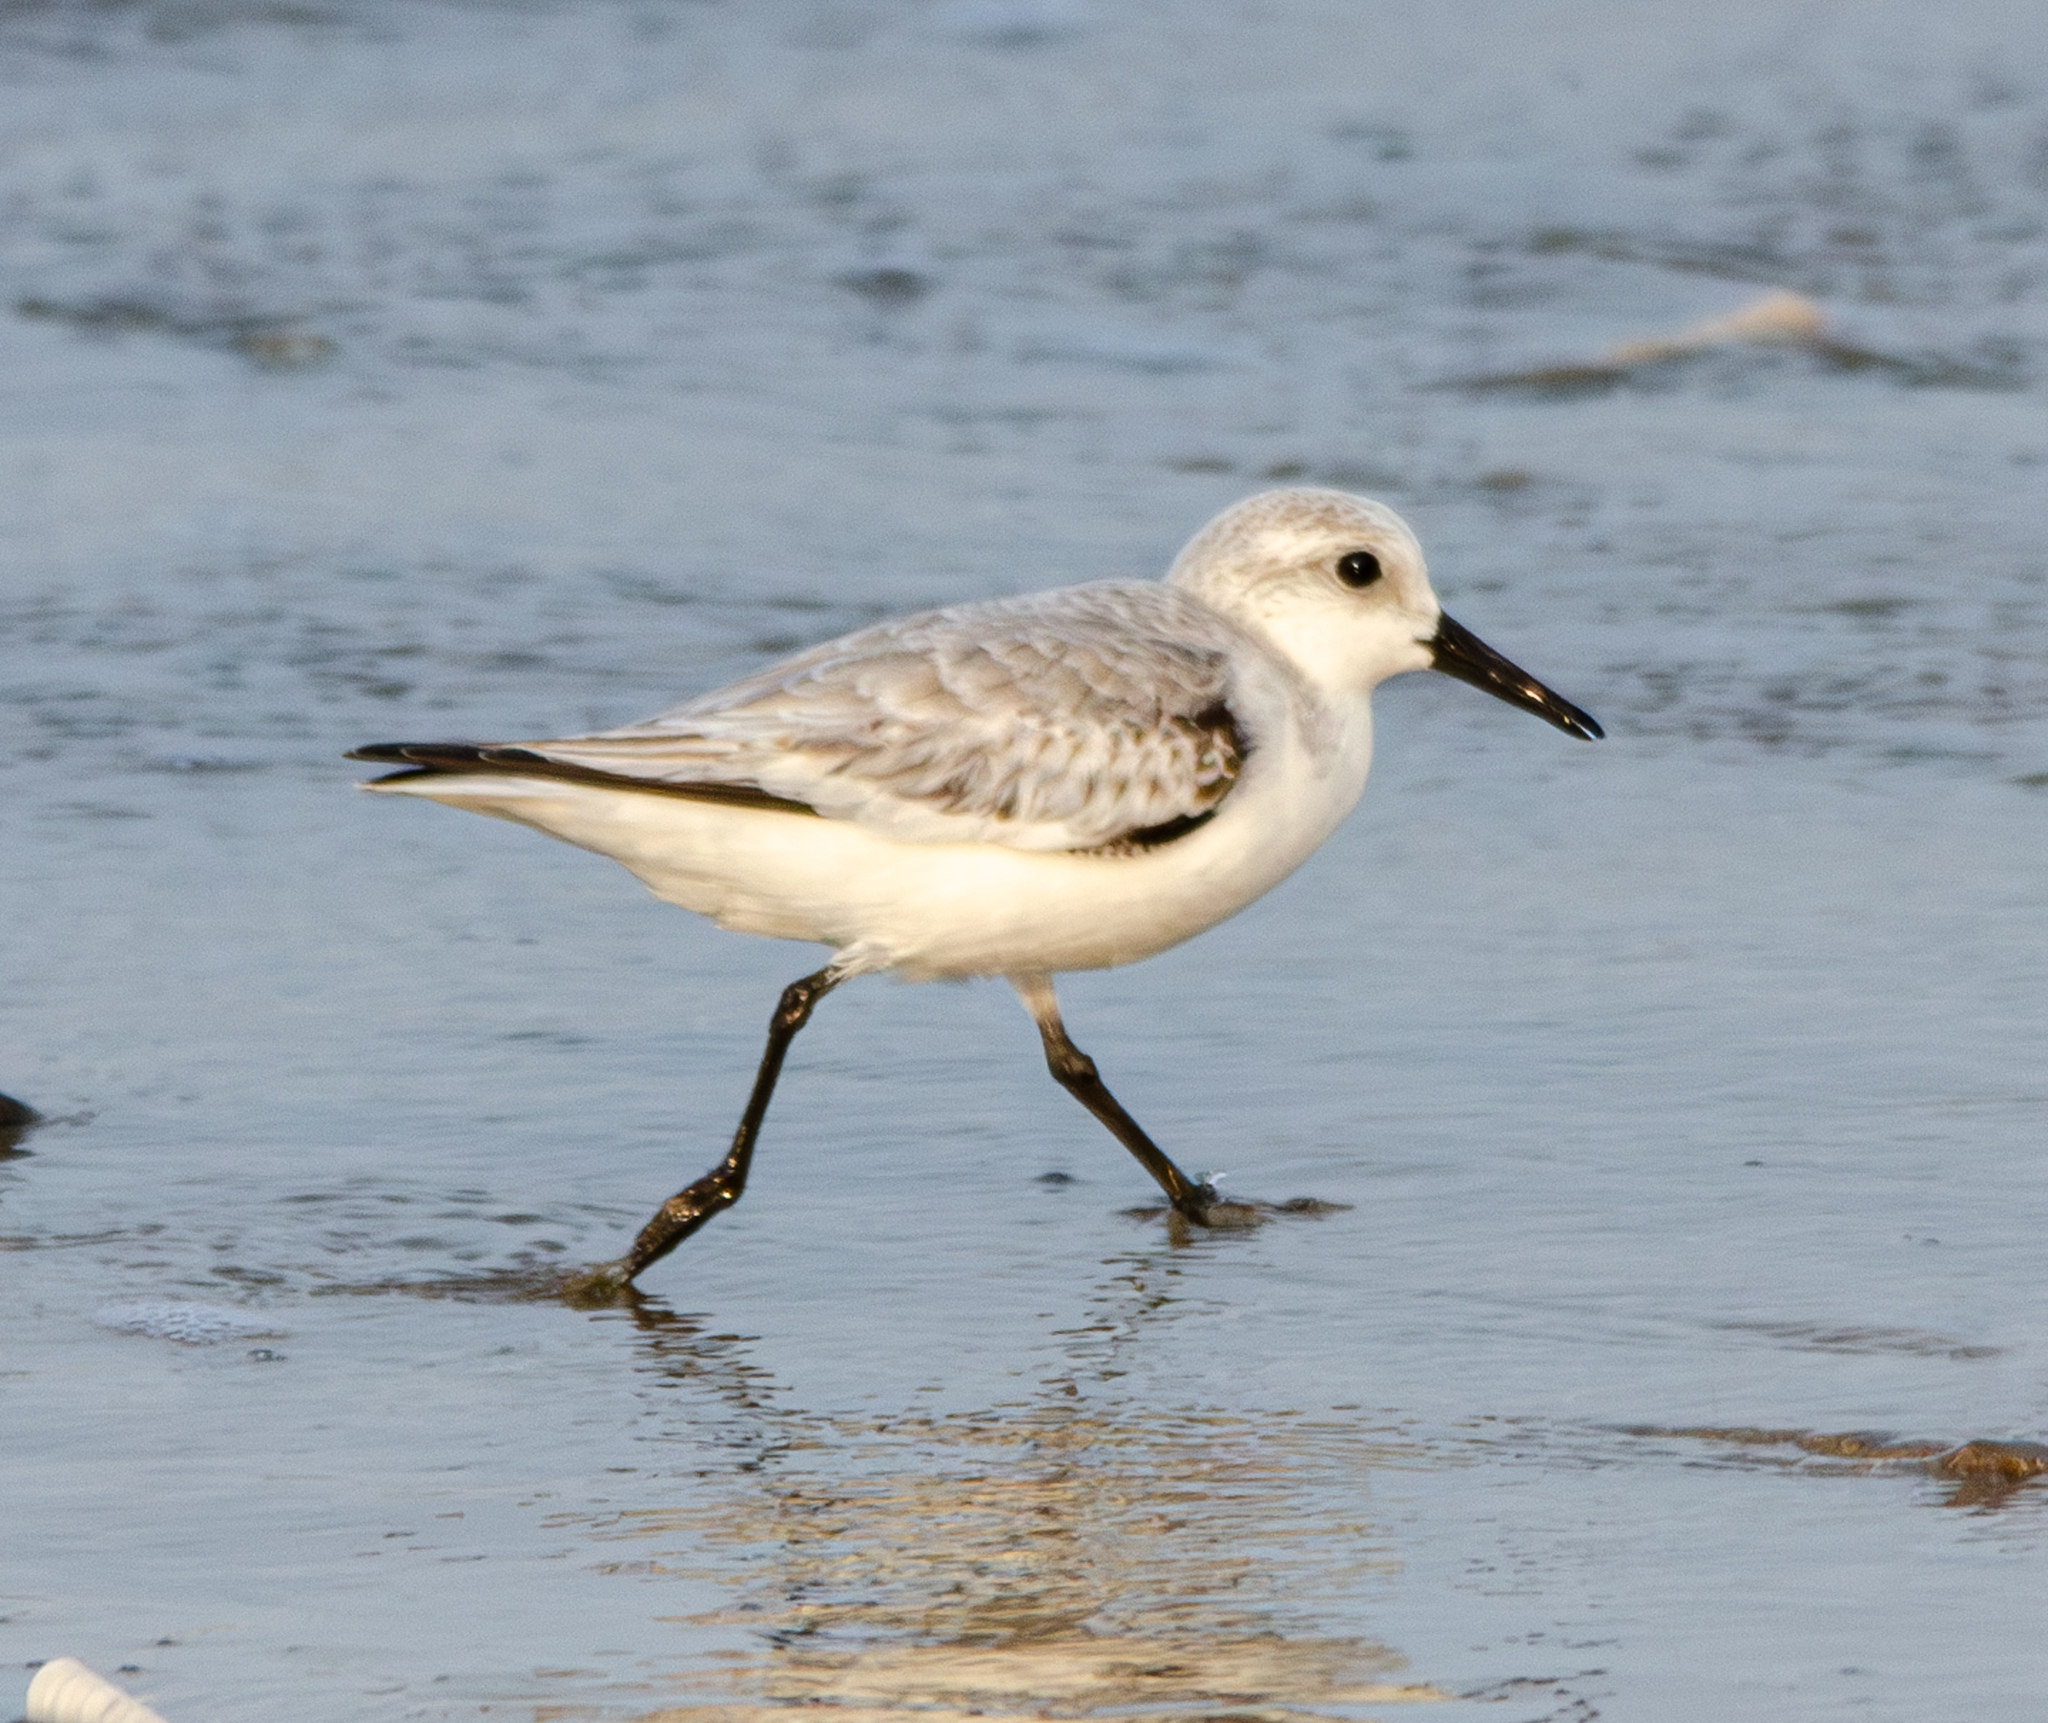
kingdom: Animalia
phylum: Chordata
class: Aves
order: Charadriiformes
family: Scolopacidae
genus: Calidris
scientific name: Calidris alba
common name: Sanderling
